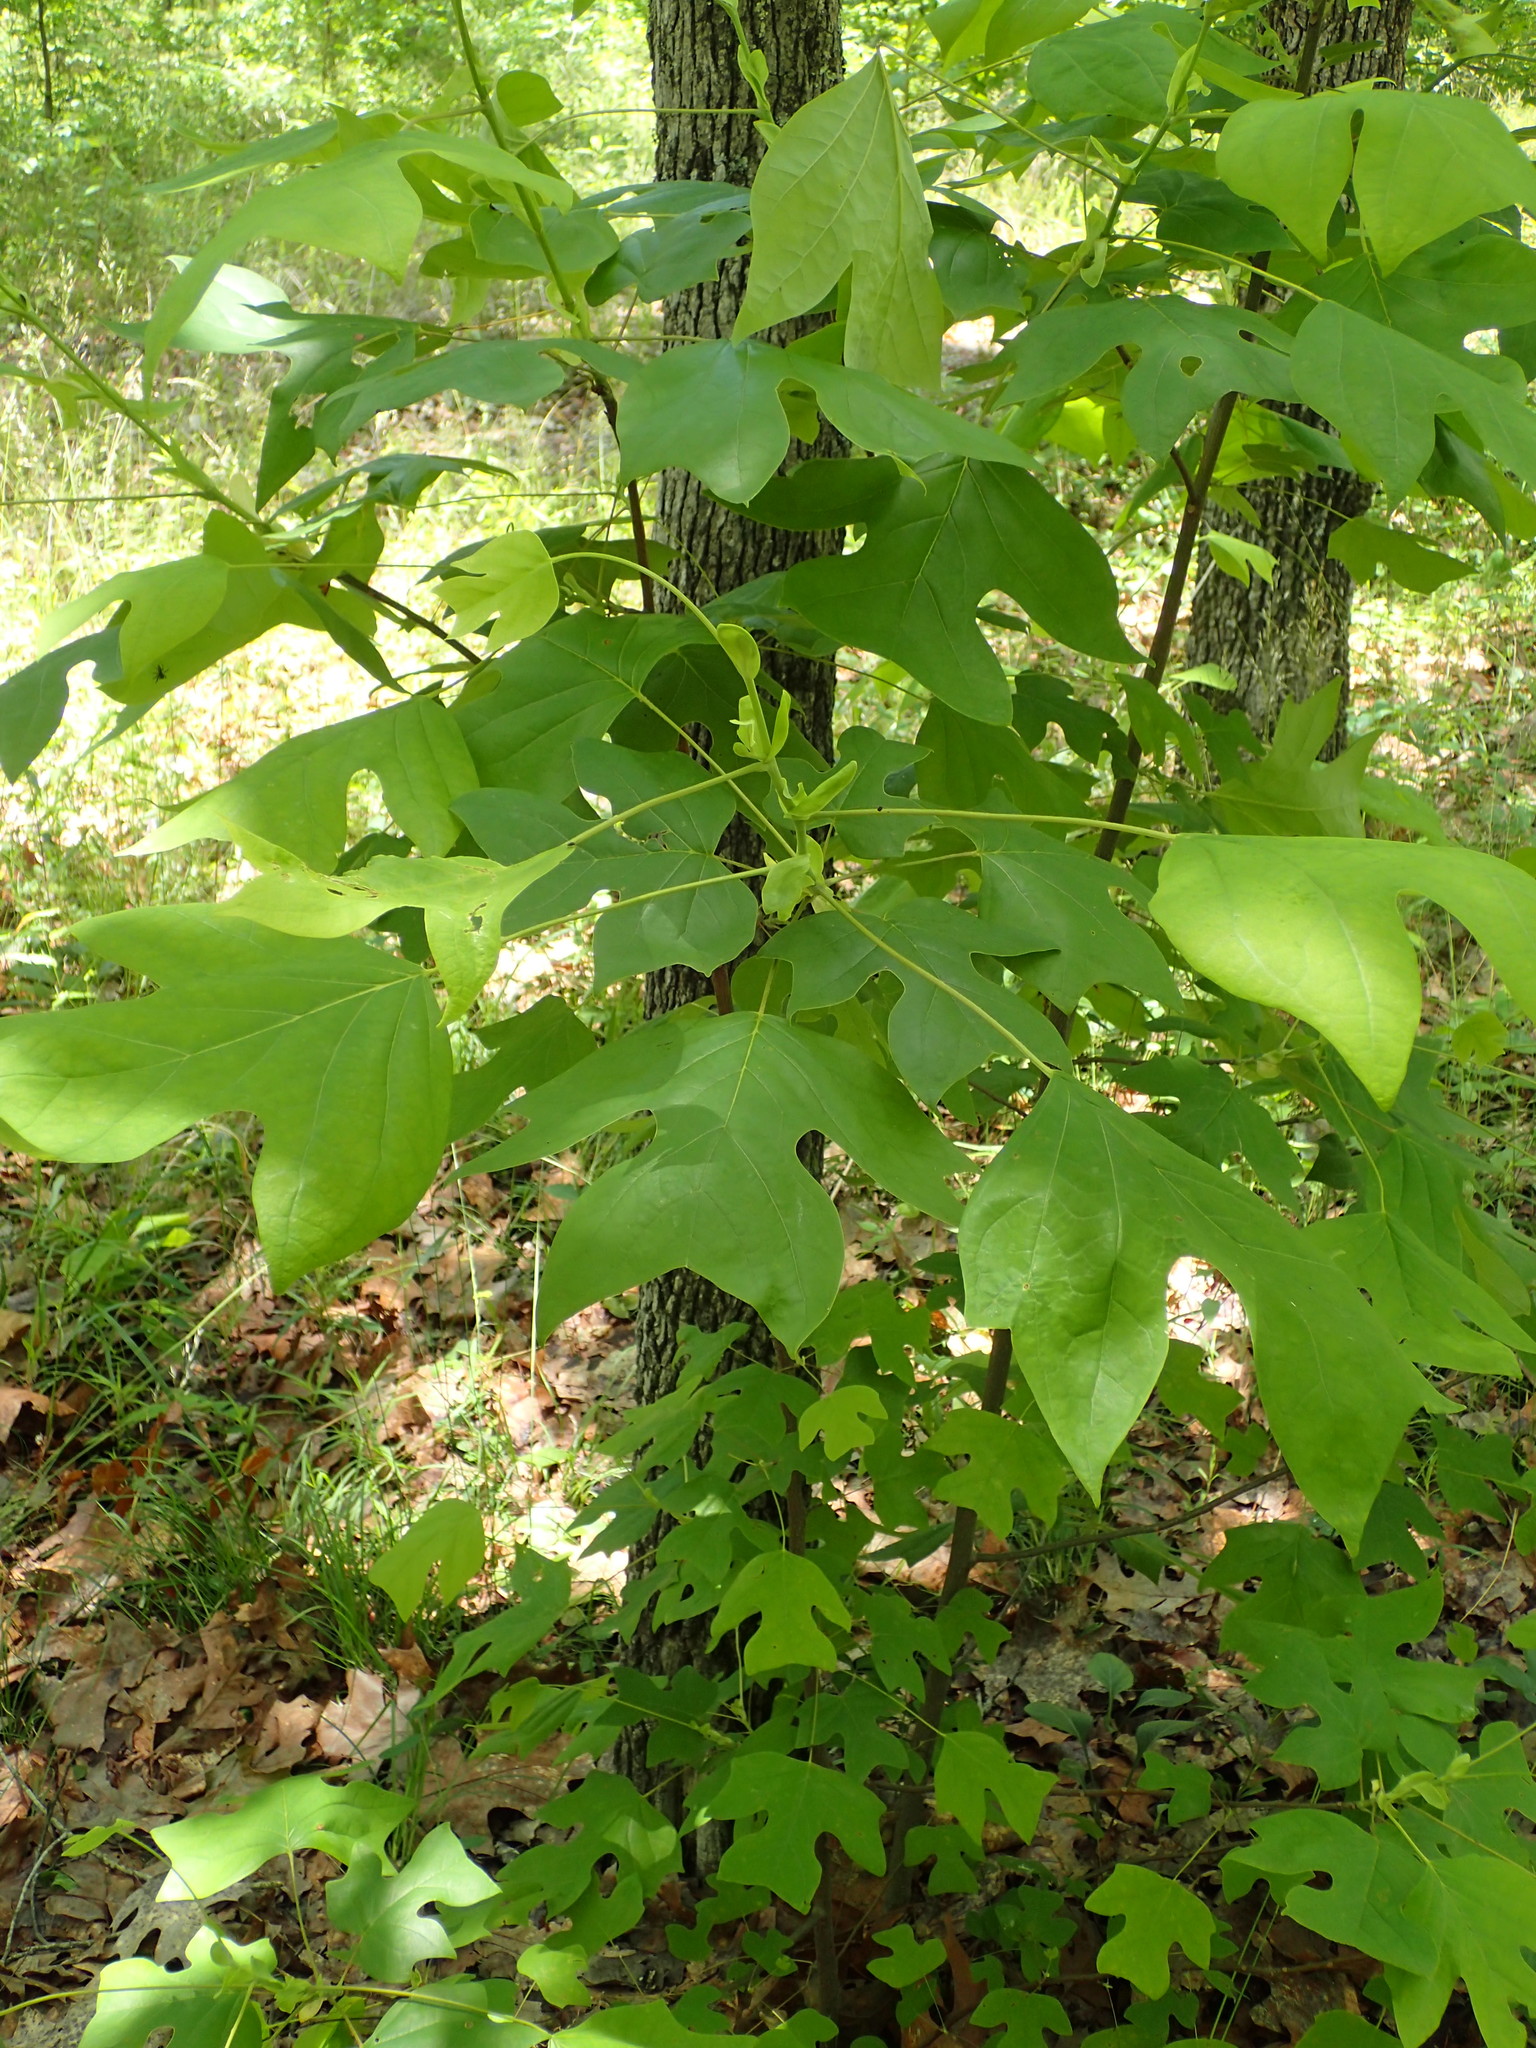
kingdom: Plantae
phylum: Tracheophyta
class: Magnoliopsida
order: Magnoliales
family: Magnoliaceae
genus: Liriodendron
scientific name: Liriodendron tulipifera
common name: Tulip tree
